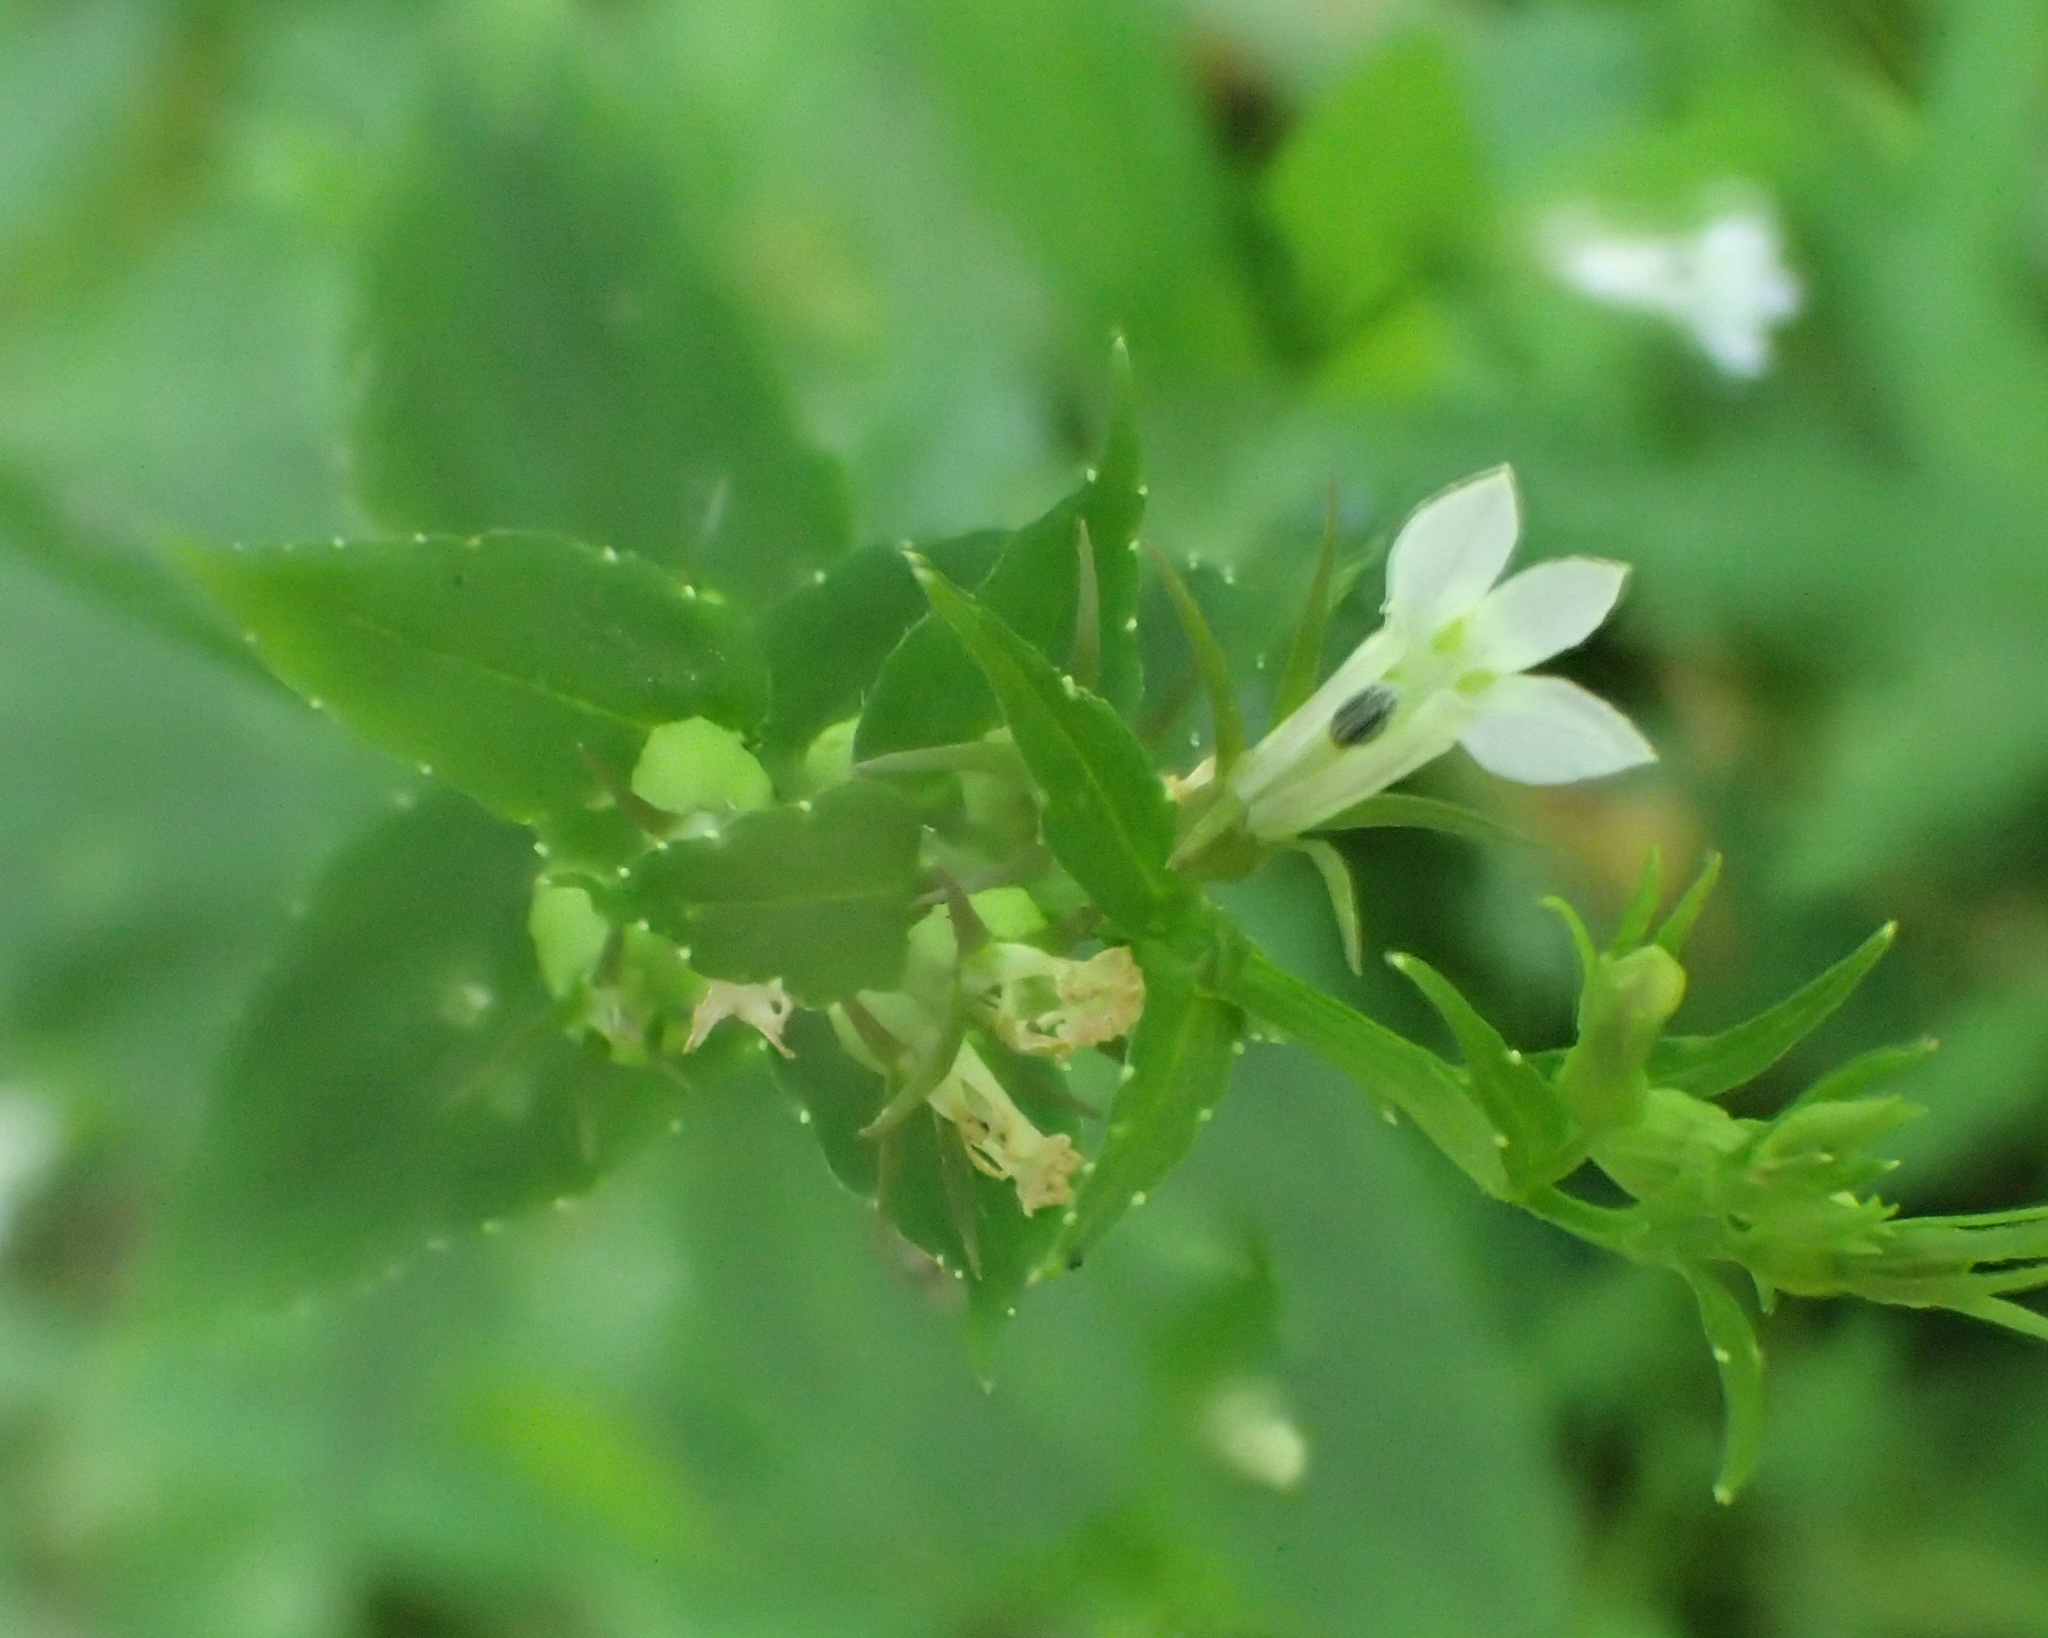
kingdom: Plantae
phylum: Tracheophyta
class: Magnoliopsida
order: Asterales
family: Campanulaceae
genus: Lobelia
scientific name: Lobelia inflata
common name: Indian tobacco
